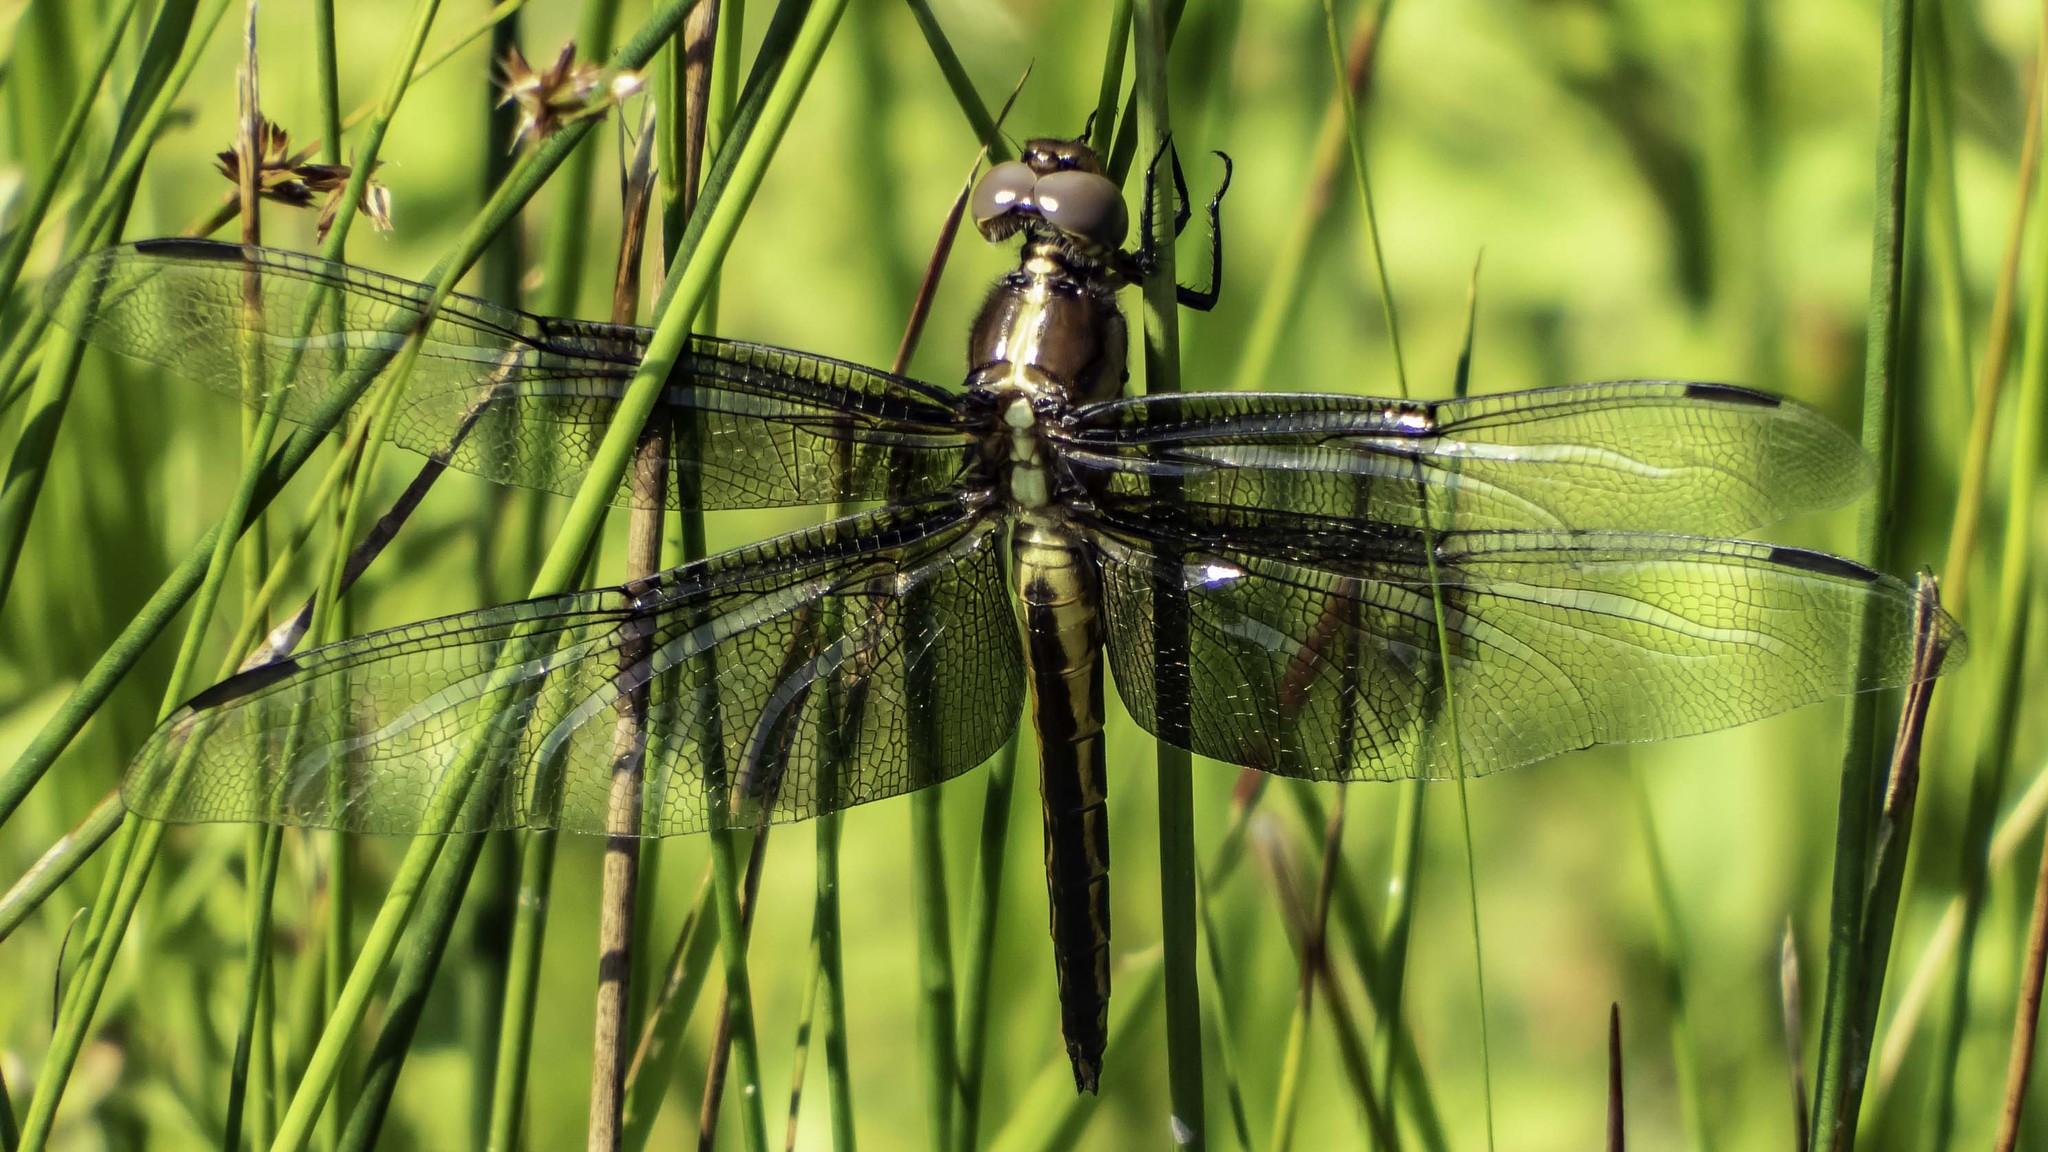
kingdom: Animalia
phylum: Arthropoda
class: Insecta
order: Odonata
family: Libellulidae
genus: Libellula
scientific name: Libellula luctuosa
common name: Widow skimmer
